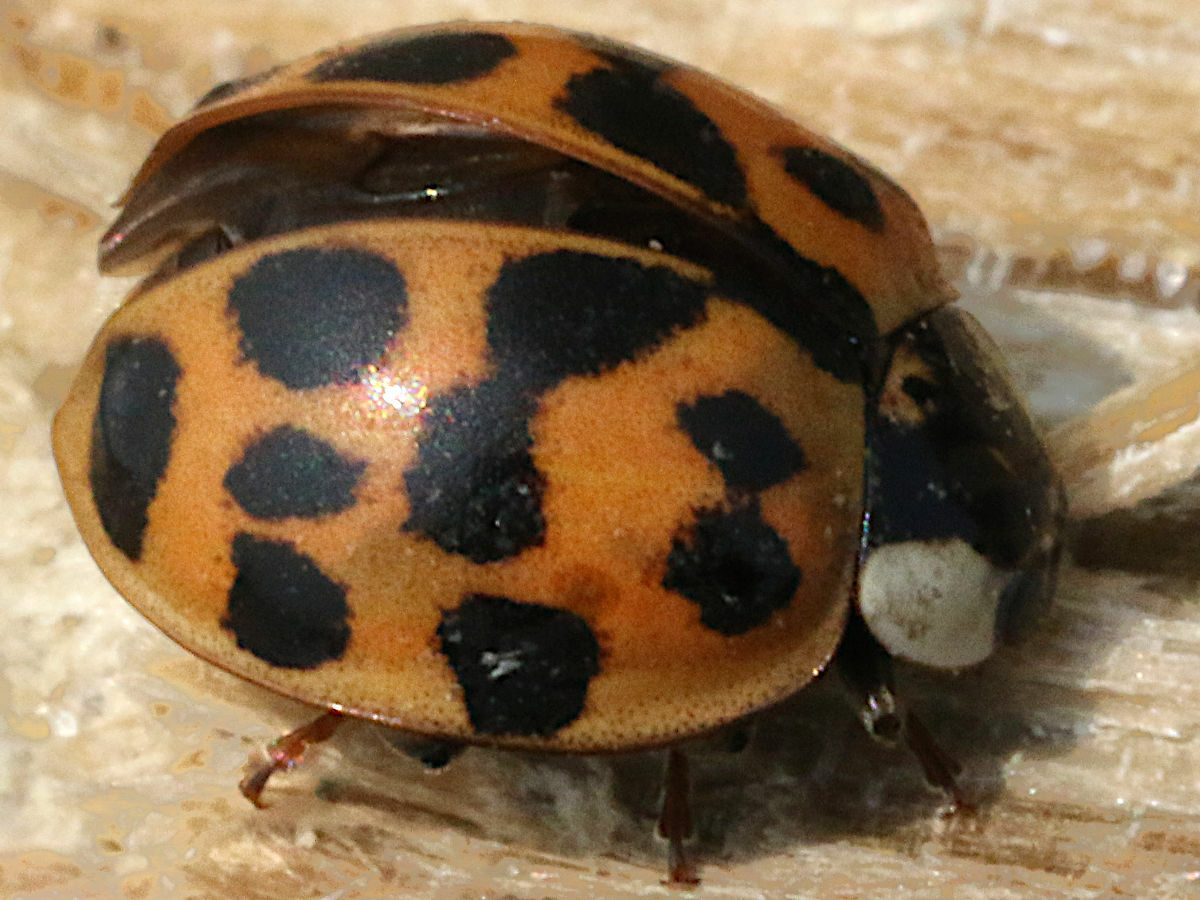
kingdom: Animalia
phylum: Arthropoda
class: Insecta
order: Coleoptera
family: Coccinellidae
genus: Harmonia
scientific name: Harmonia axyridis
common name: Harlequin ladybird
